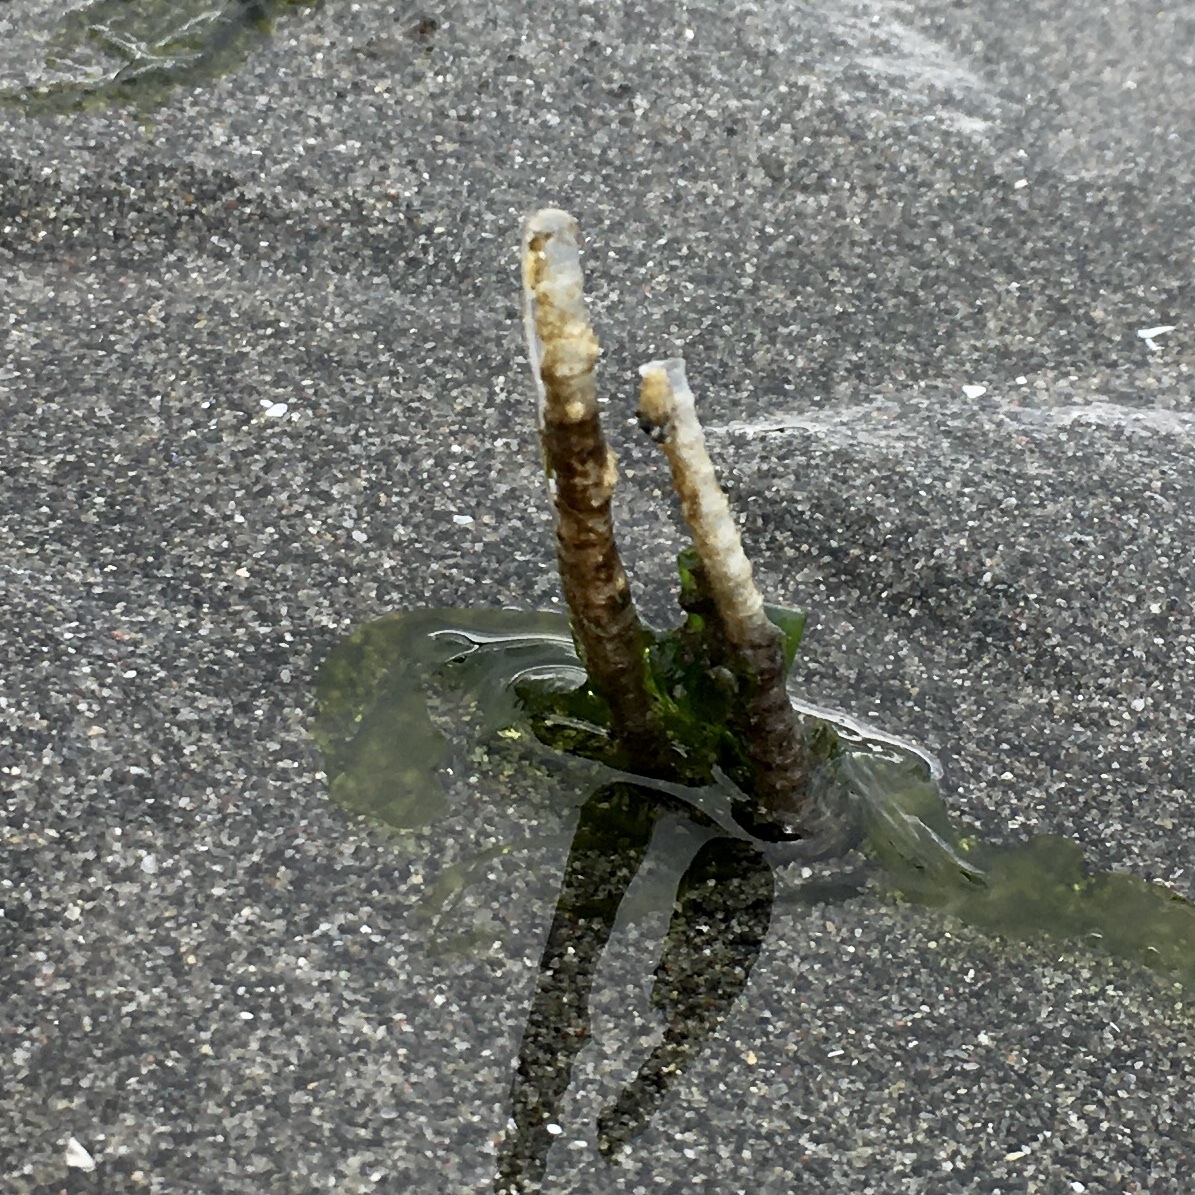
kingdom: Animalia
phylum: Annelida
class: Polychaeta
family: Chaetopteridae
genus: Spiochaetopterus
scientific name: Spiochaetopterus costarum
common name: Glassy tubeworm
